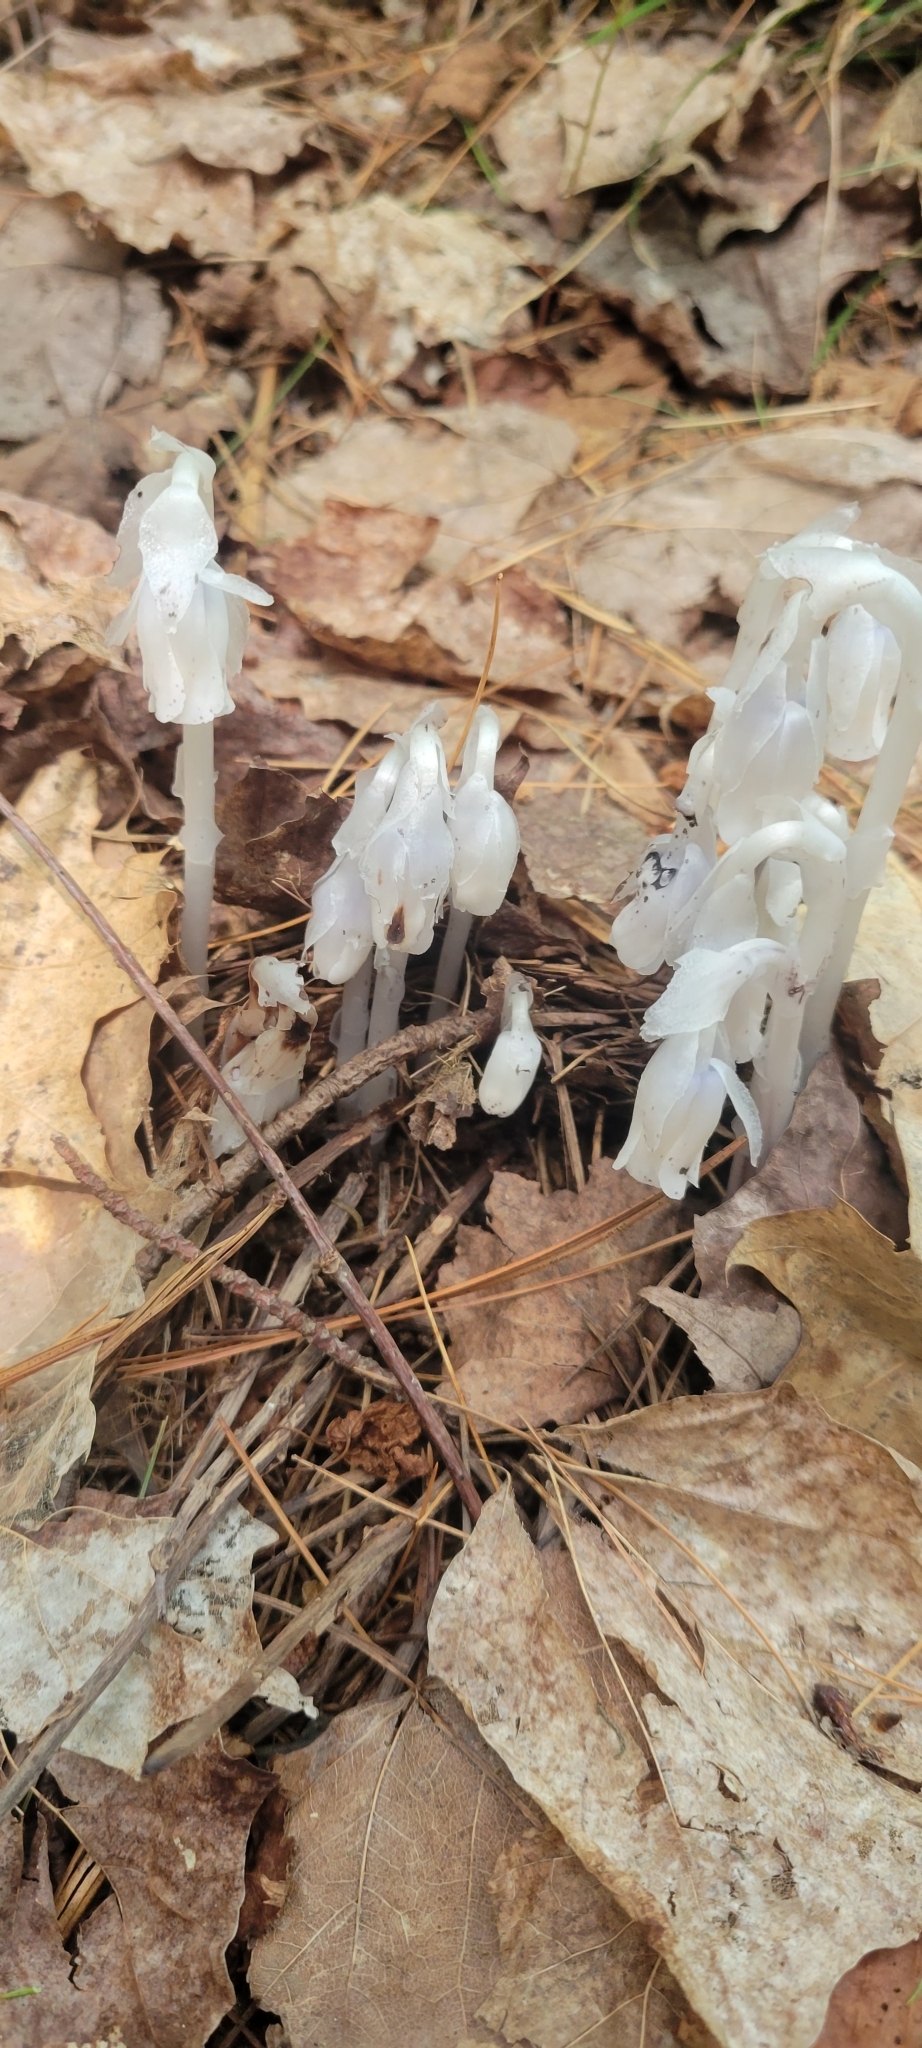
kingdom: Plantae
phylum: Tracheophyta
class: Magnoliopsida
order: Ericales
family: Ericaceae
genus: Monotropa
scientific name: Monotropa uniflora
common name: Convulsion root
